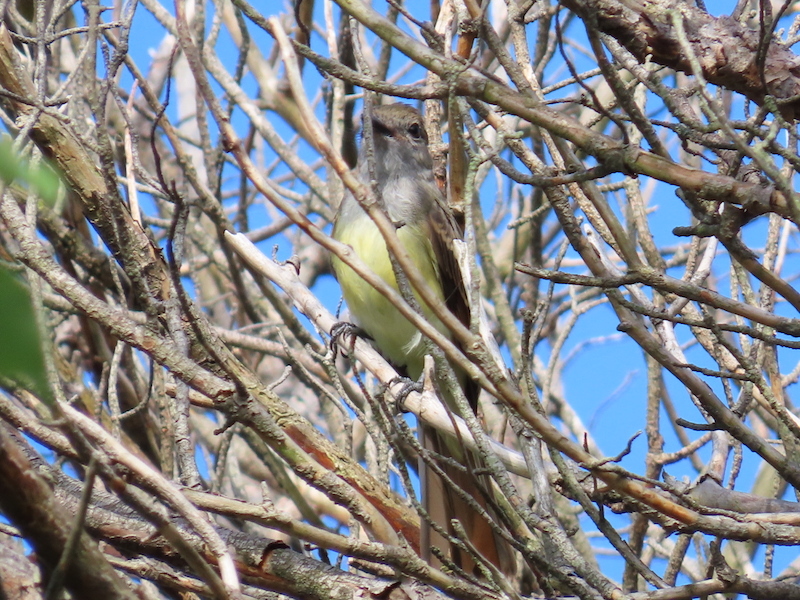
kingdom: Animalia
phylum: Chordata
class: Aves
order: Passeriformes
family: Tyrannidae
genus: Myiarchus
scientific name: Myiarchus crinitus
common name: Great crested flycatcher
